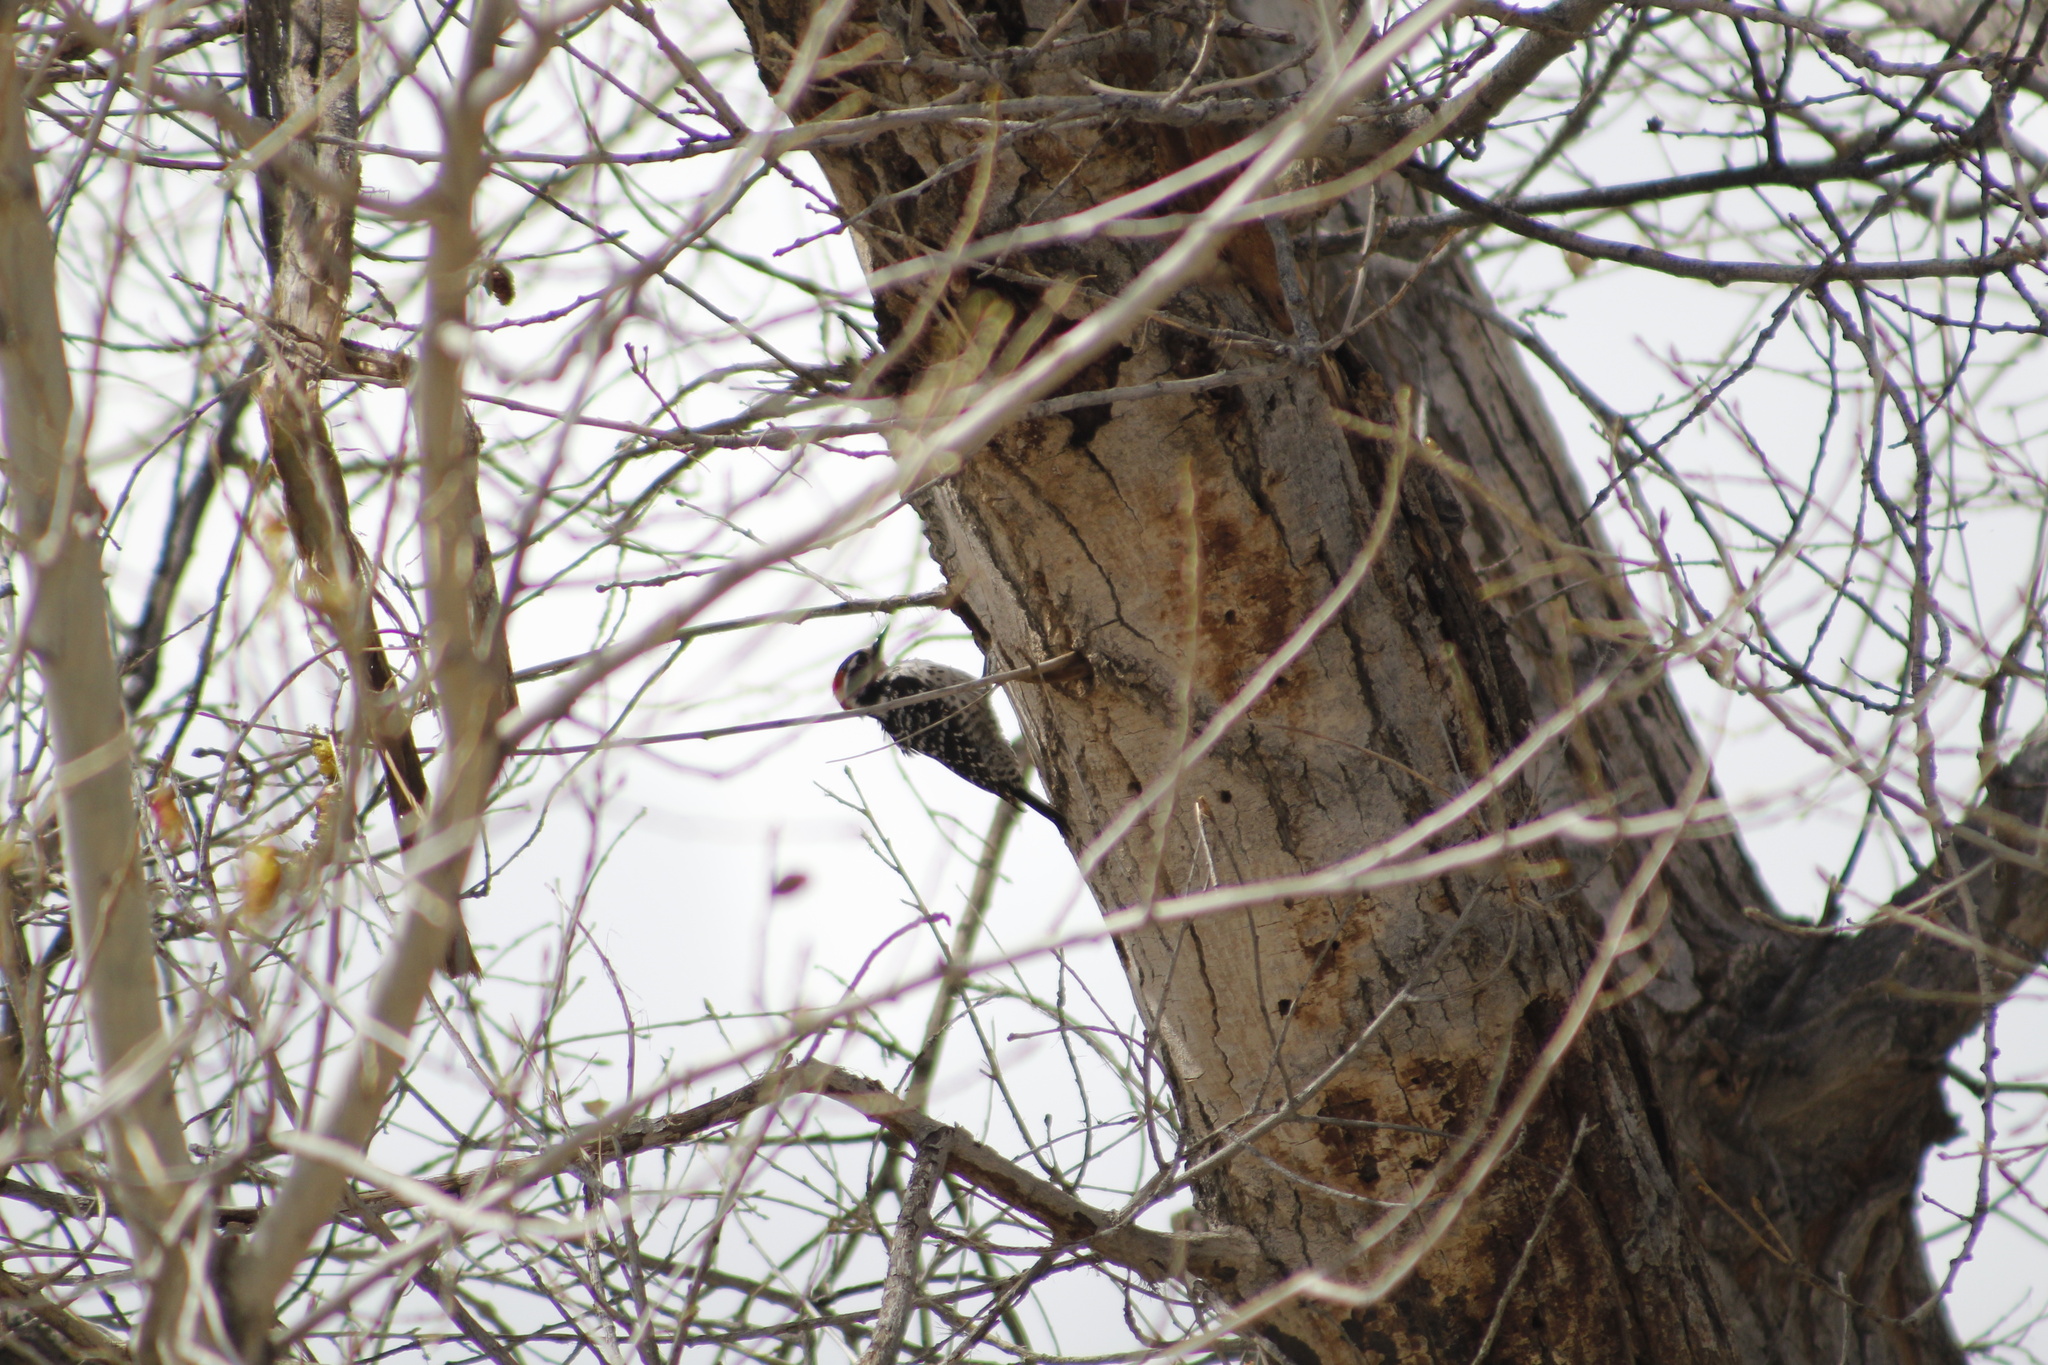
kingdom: Animalia
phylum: Chordata
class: Aves
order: Piciformes
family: Picidae
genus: Dryobates
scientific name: Dryobates
